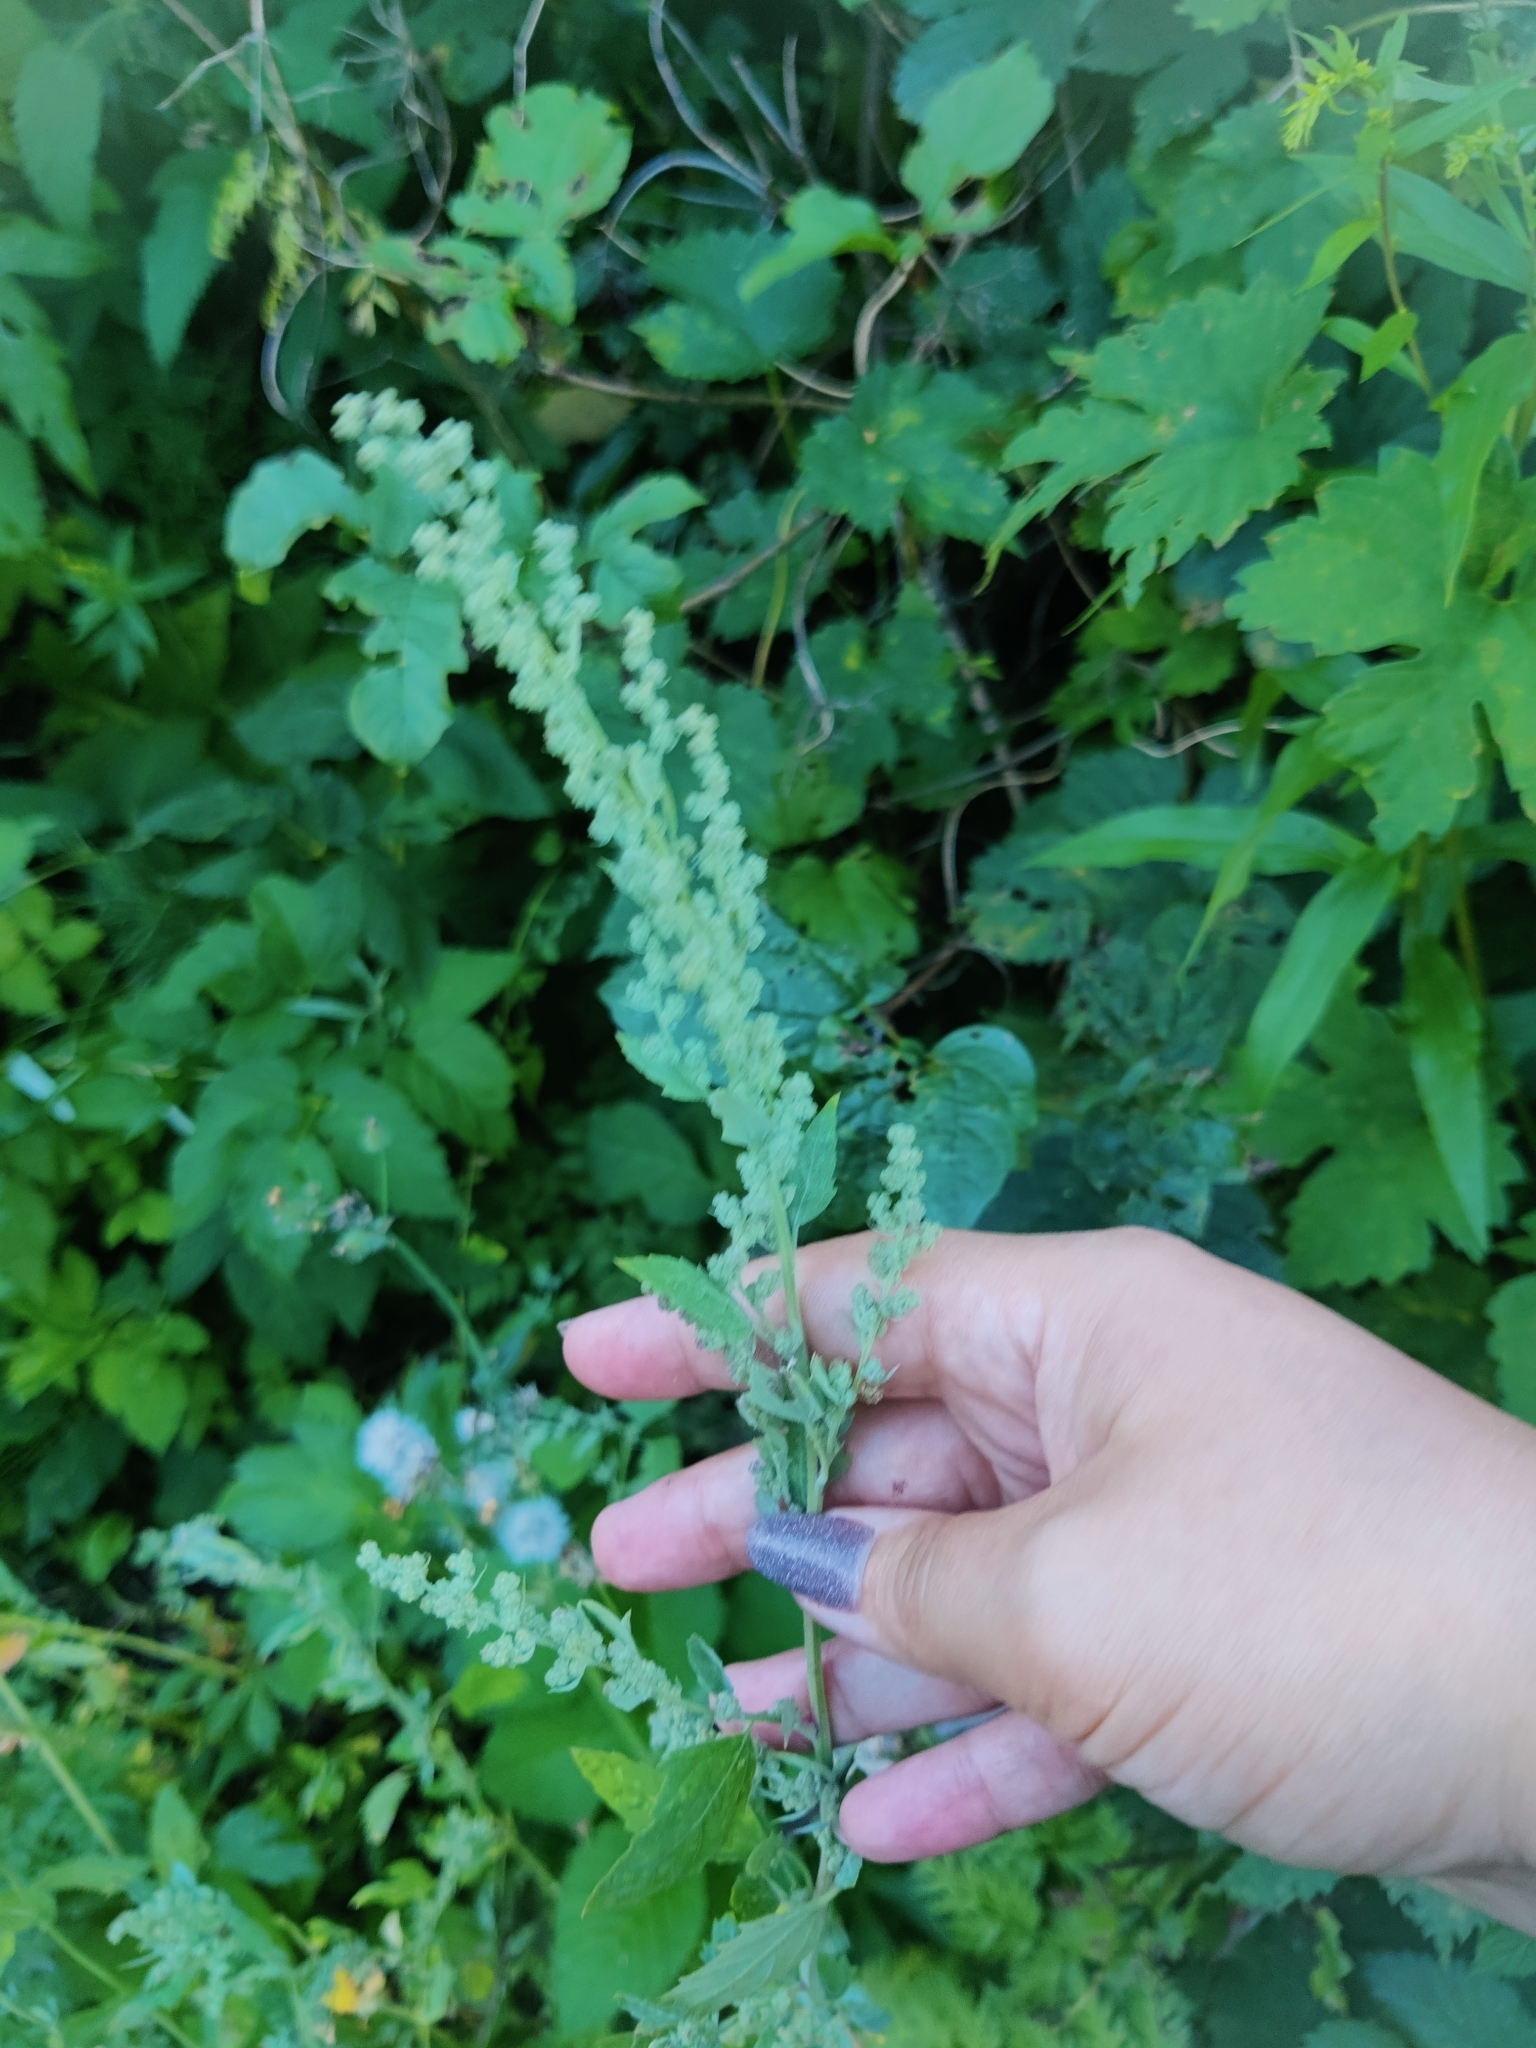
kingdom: Plantae
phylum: Tracheophyta
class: Magnoliopsida
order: Caryophyllales
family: Amaranthaceae
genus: Chenopodium
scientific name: Chenopodium album
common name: Fat-hen
